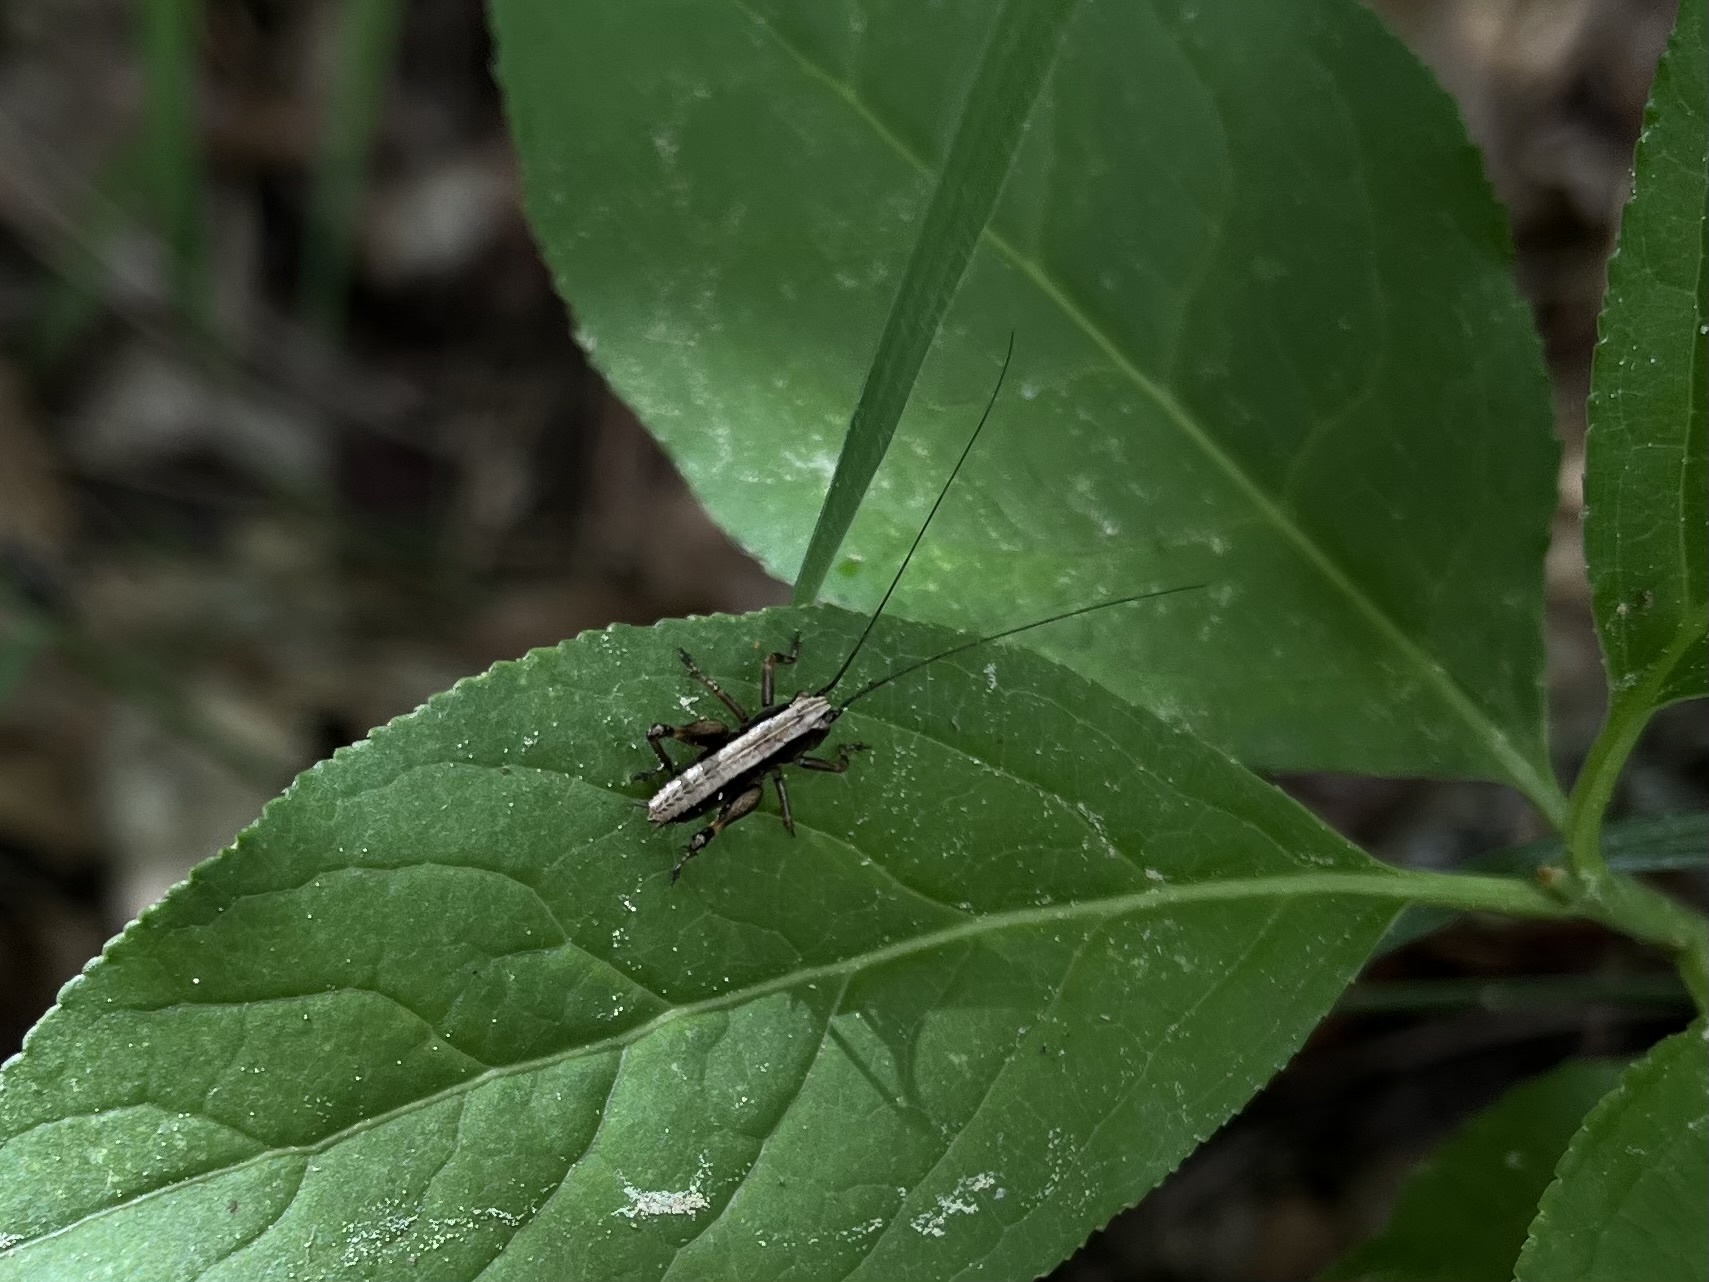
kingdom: Animalia
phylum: Arthropoda
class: Insecta
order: Orthoptera
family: Tettigoniidae
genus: Pholidoptera
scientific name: Pholidoptera griseoaptera
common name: Dark bush-cricket
